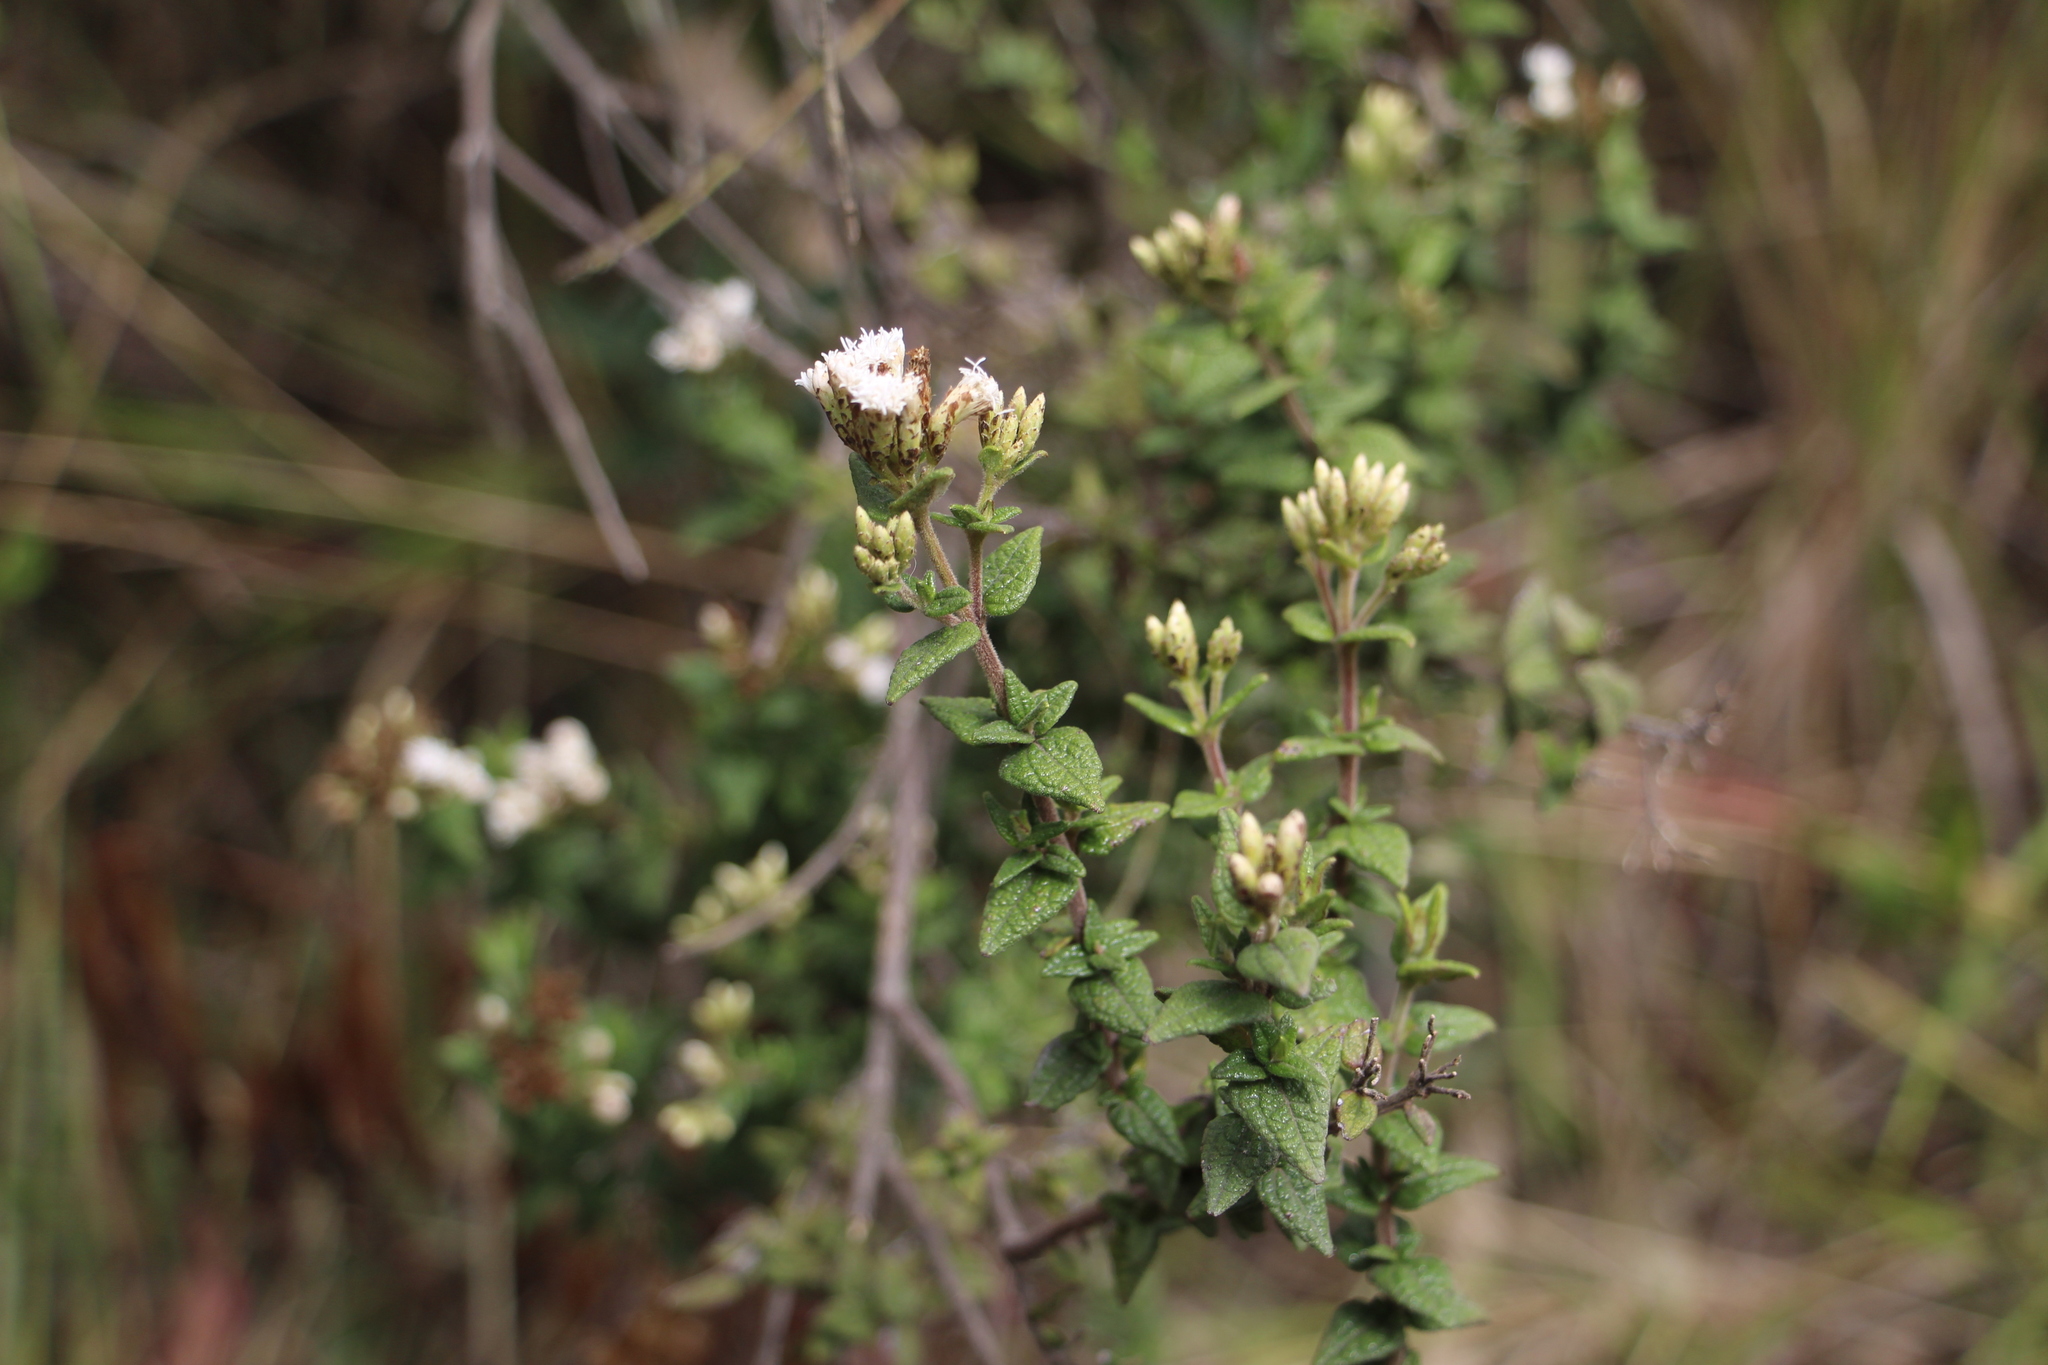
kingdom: Plantae
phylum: Tracheophyta
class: Magnoliopsida
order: Asterales
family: Asteraceae
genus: Chromolaena
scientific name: Chromolaena bullata
